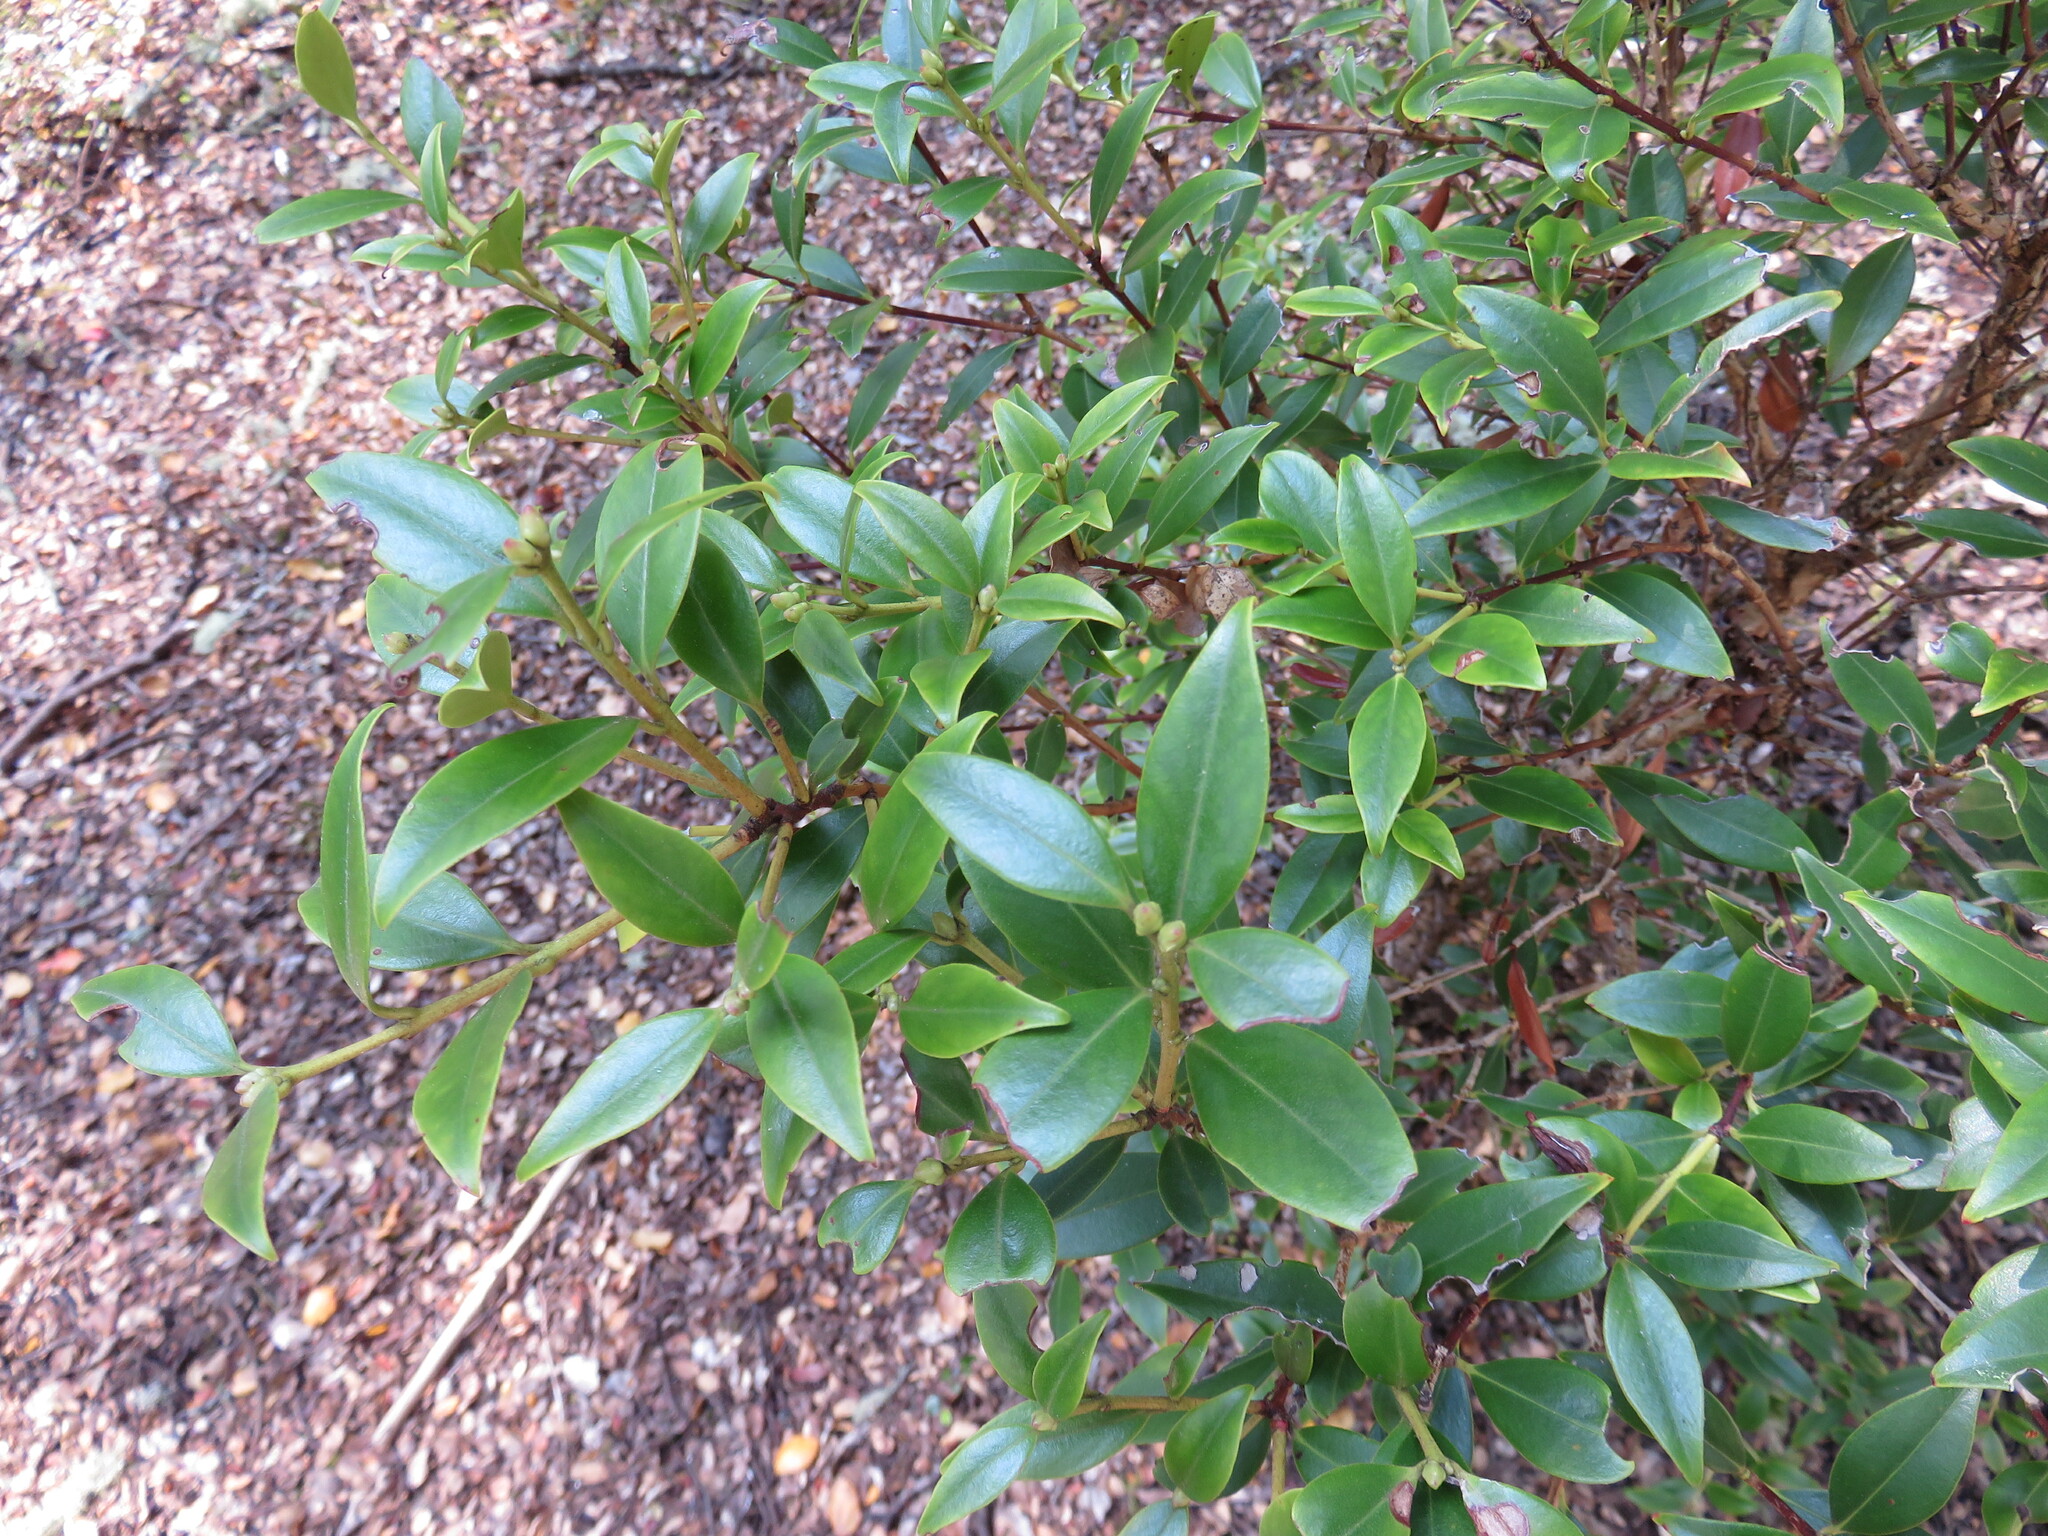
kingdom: Plantae
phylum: Tracheophyta
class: Magnoliopsida
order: Myrtales
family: Myrtaceae
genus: Metrosideros
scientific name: Metrosideros umbellata
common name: Southern rata
